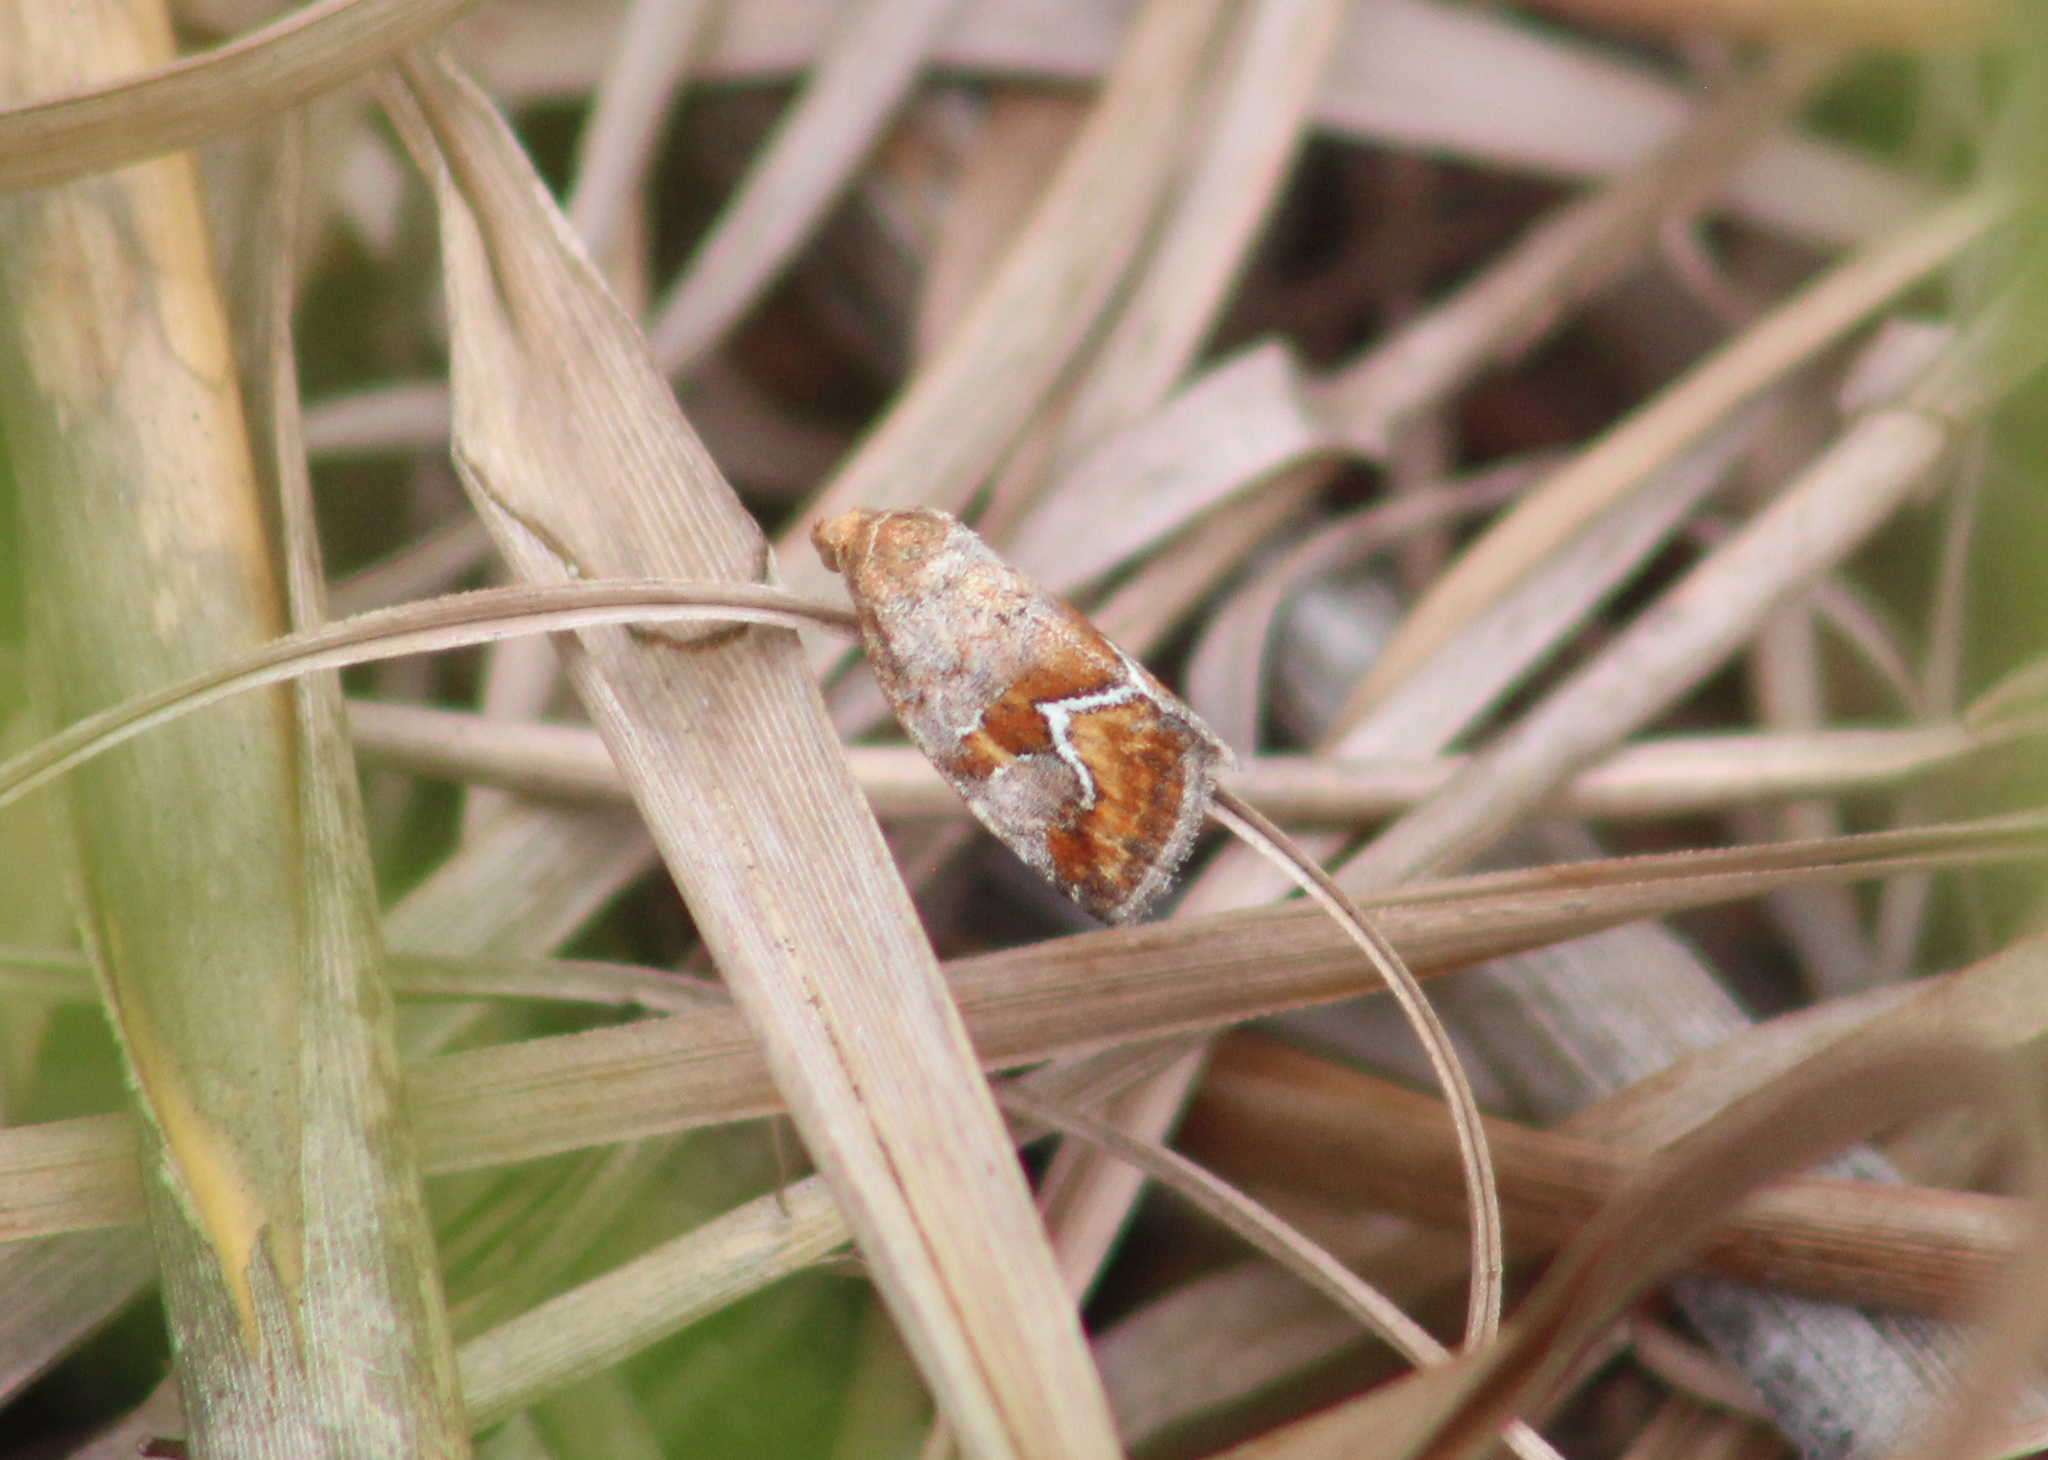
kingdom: Animalia
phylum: Arthropoda
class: Insecta
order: Lepidoptera
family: Noctuidae
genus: Deltote
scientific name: Deltote bellicula
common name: Bog glyph
